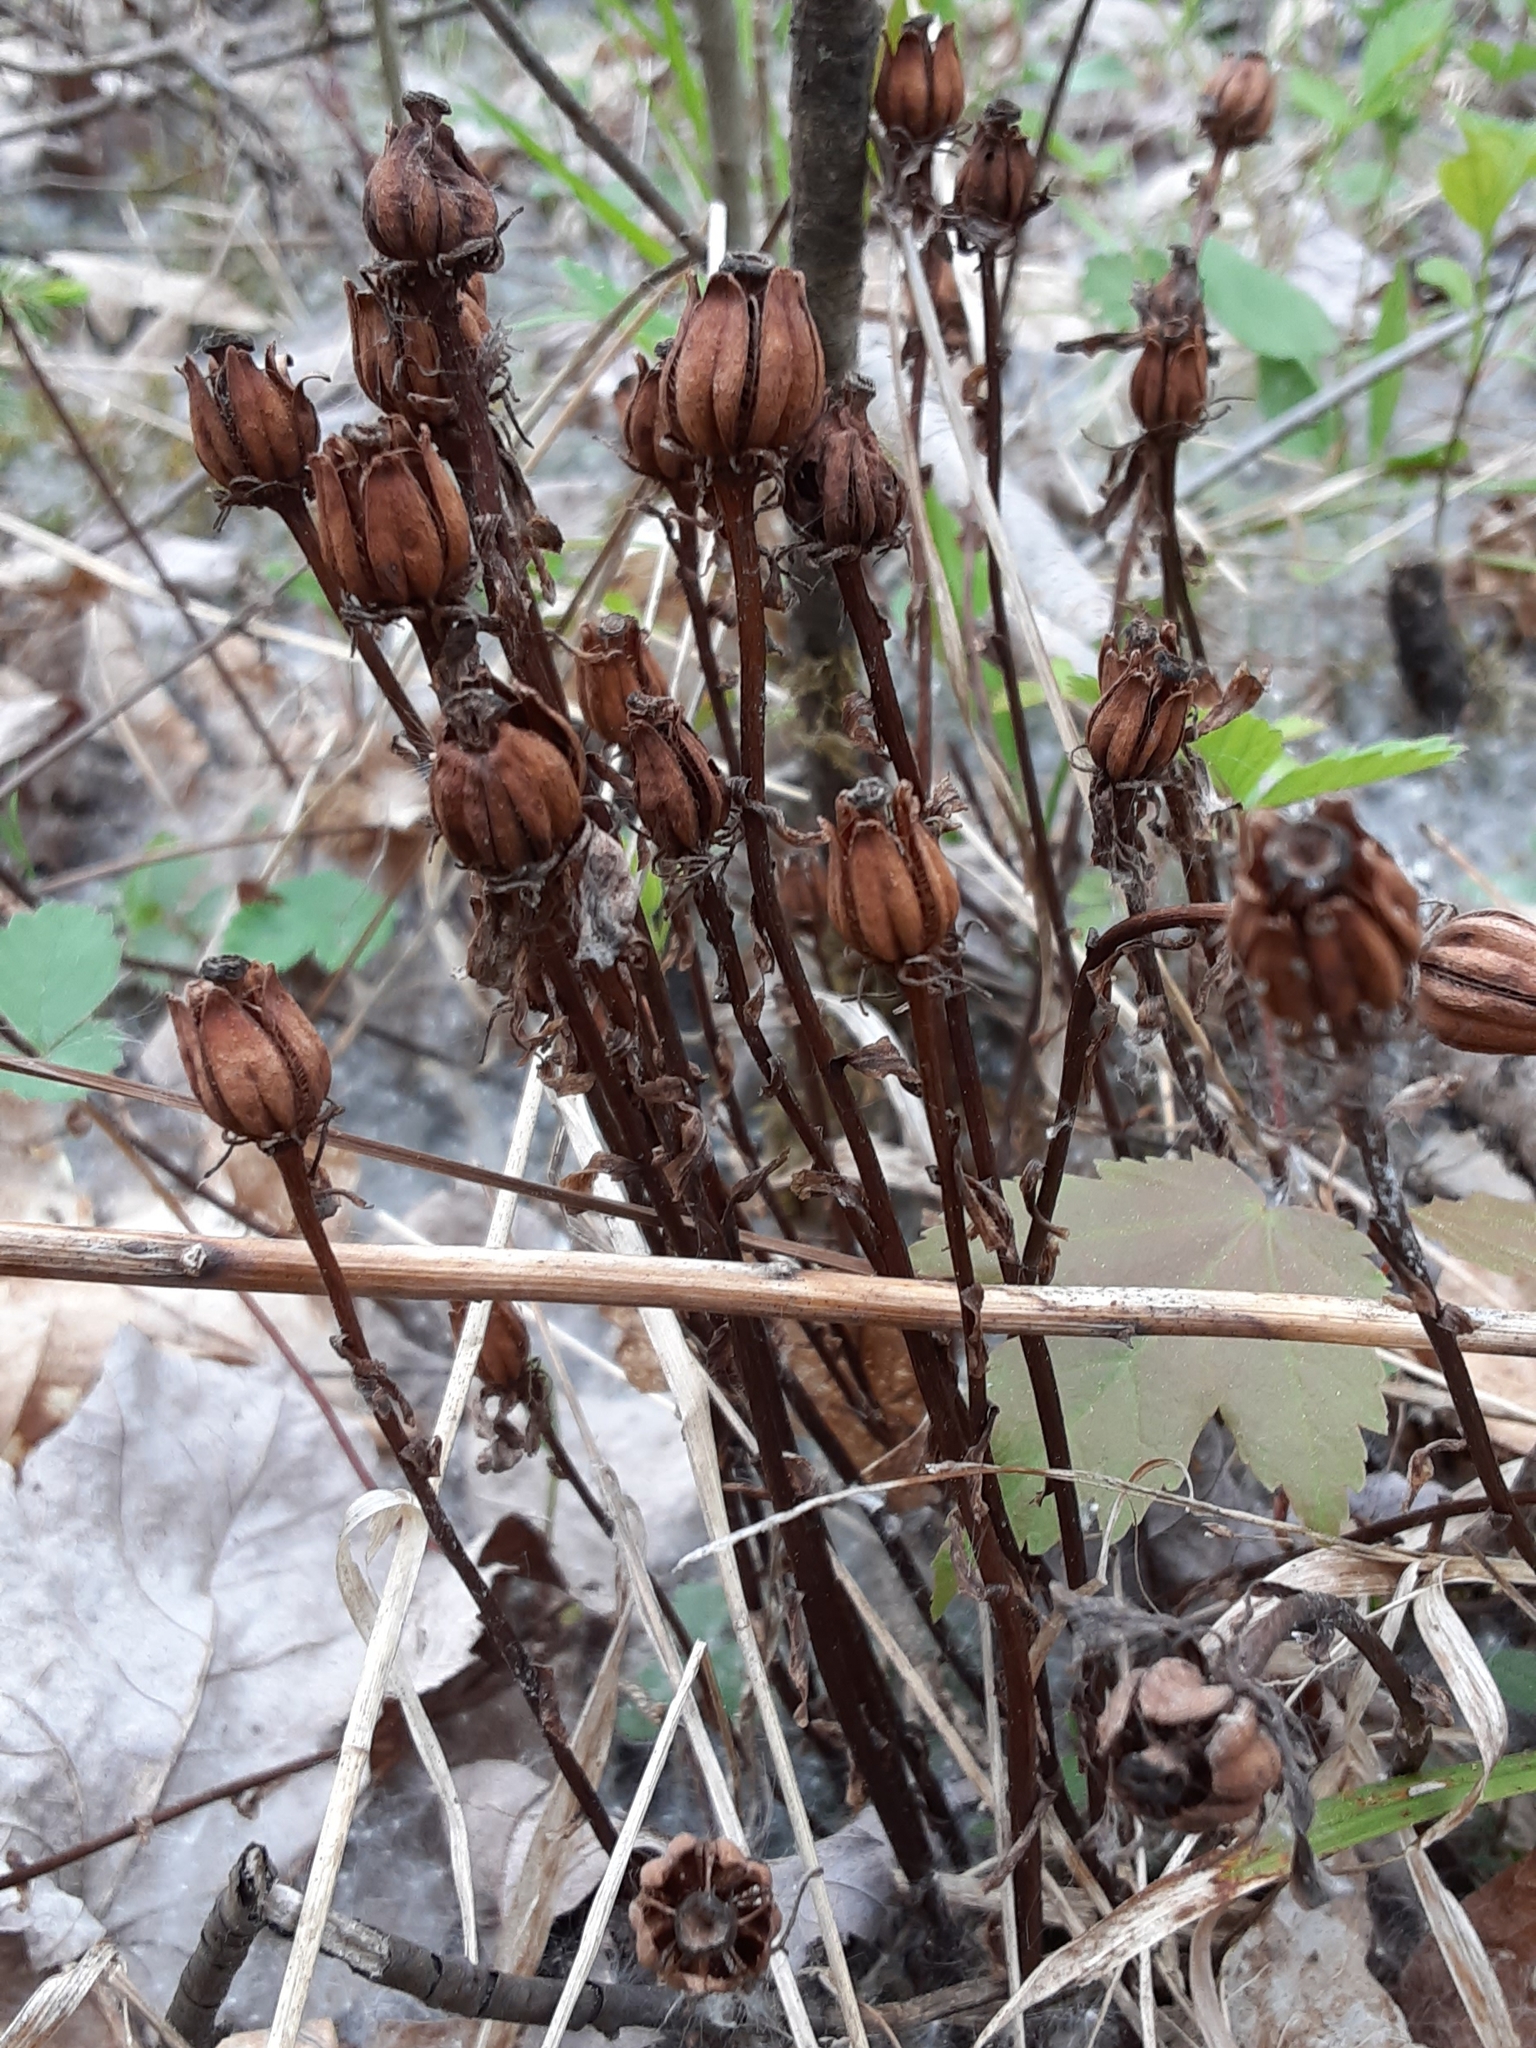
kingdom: Plantae
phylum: Tracheophyta
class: Magnoliopsida
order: Ericales
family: Ericaceae
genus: Monotropa
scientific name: Monotropa uniflora
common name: Convulsion root
